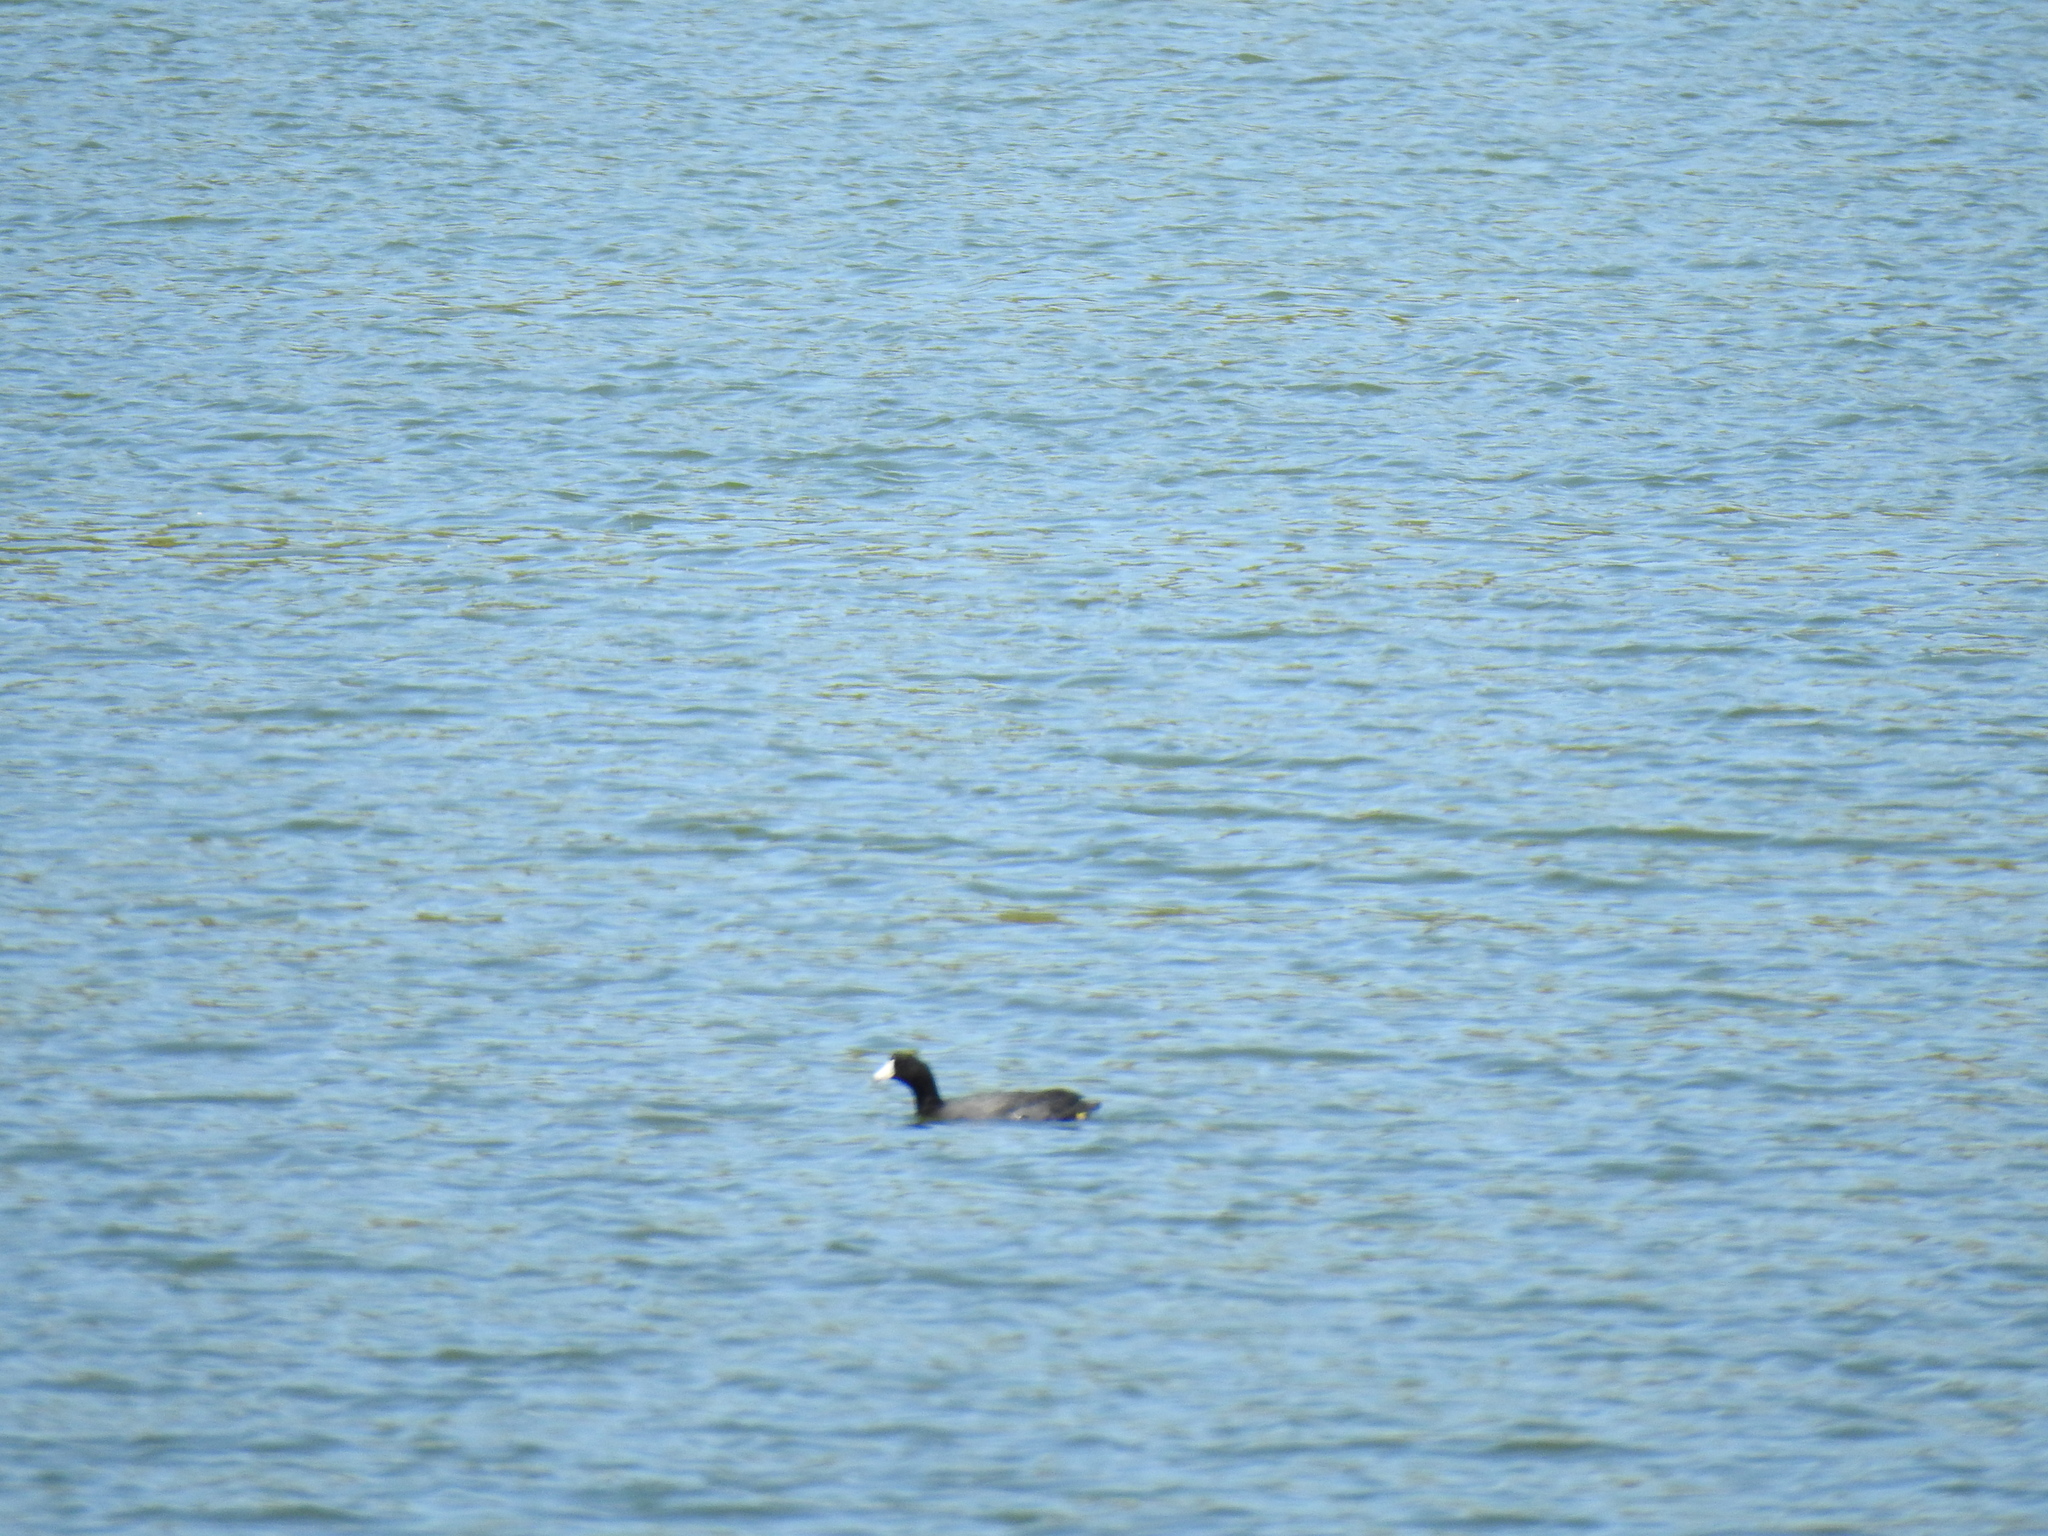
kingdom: Animalia
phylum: Chordata
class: Aves
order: Gruiformes
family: Rallidae
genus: Fulica
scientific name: Fulica americana
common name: American coot
